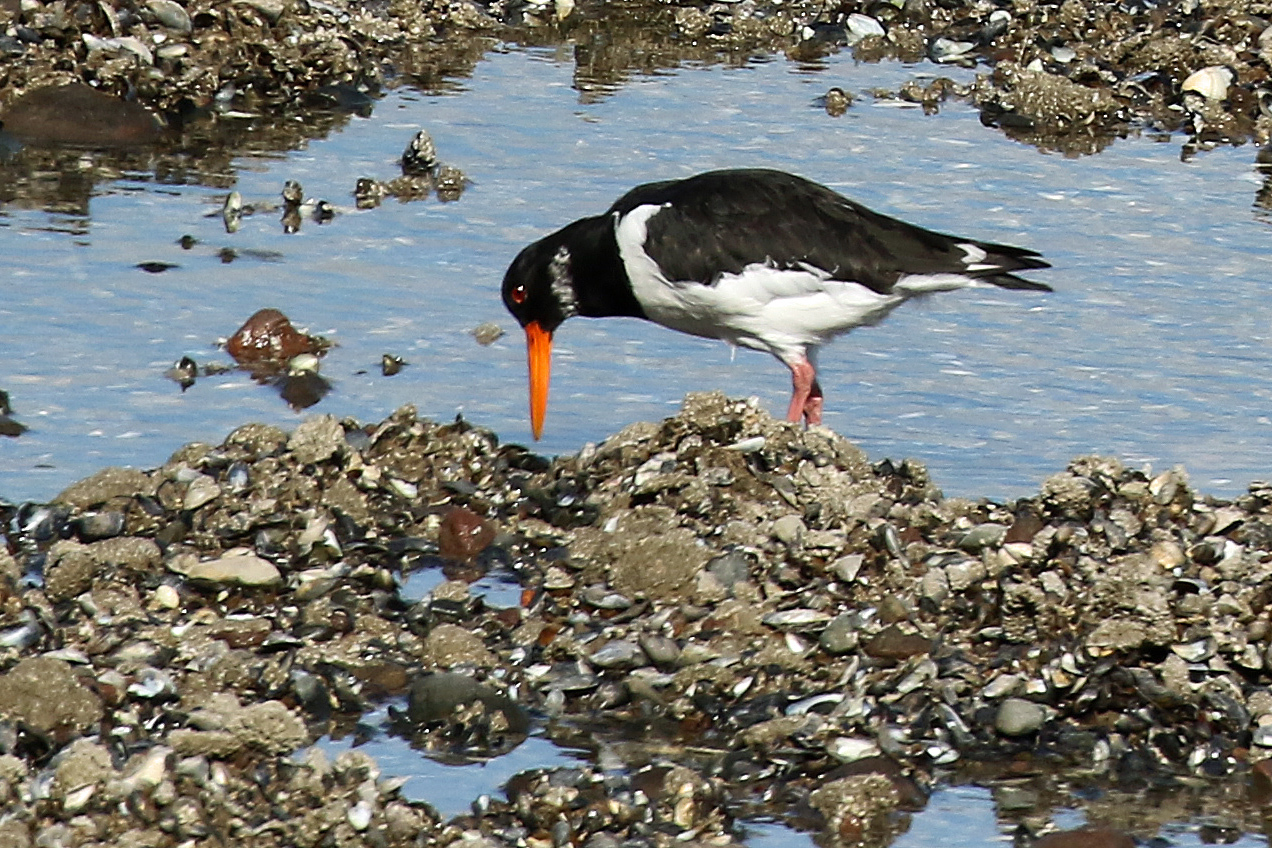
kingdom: Animalia
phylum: Chordata
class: Aves
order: Charadriiformes
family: Haematopodidae
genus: Haematopus
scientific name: Haematopus ostralegus
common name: Eurasian oystercatcher
